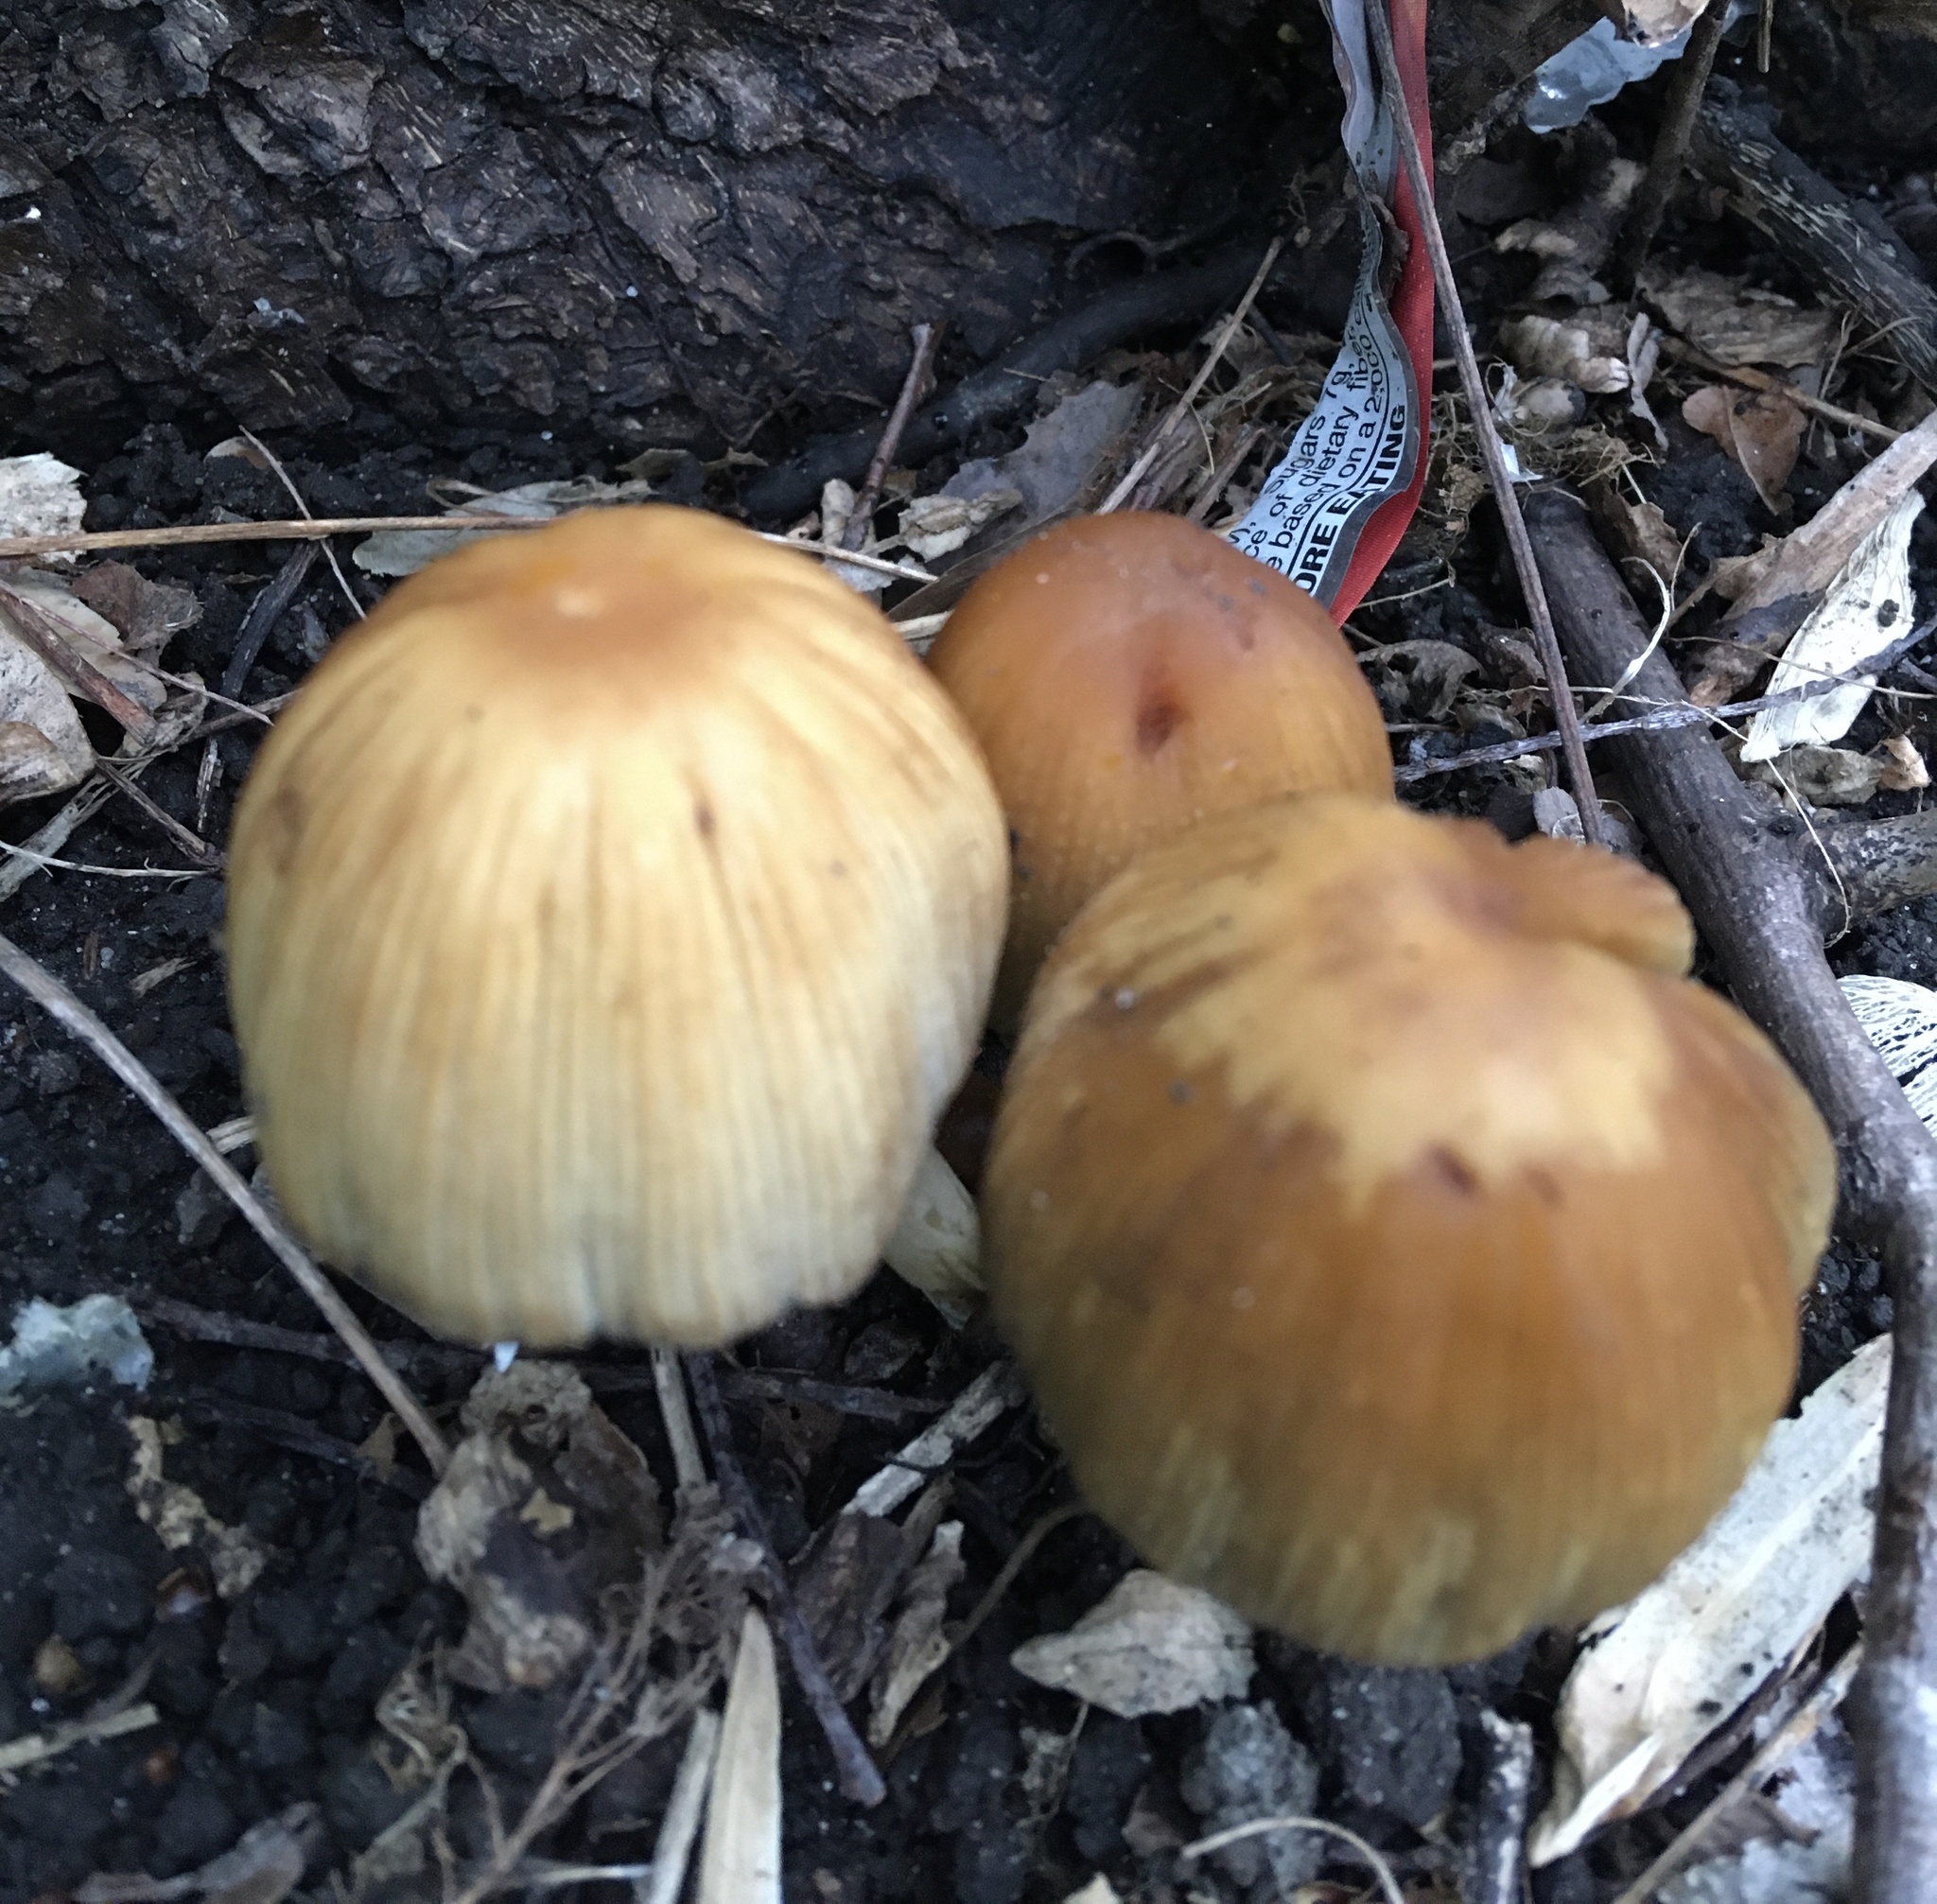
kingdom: Fungi
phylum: Basidiomycota
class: Agaricomycetes
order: Agaricales
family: Psathyrellaceae
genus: Coprinellus
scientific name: Coprinellus micaceus
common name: Glistening ink-cap
